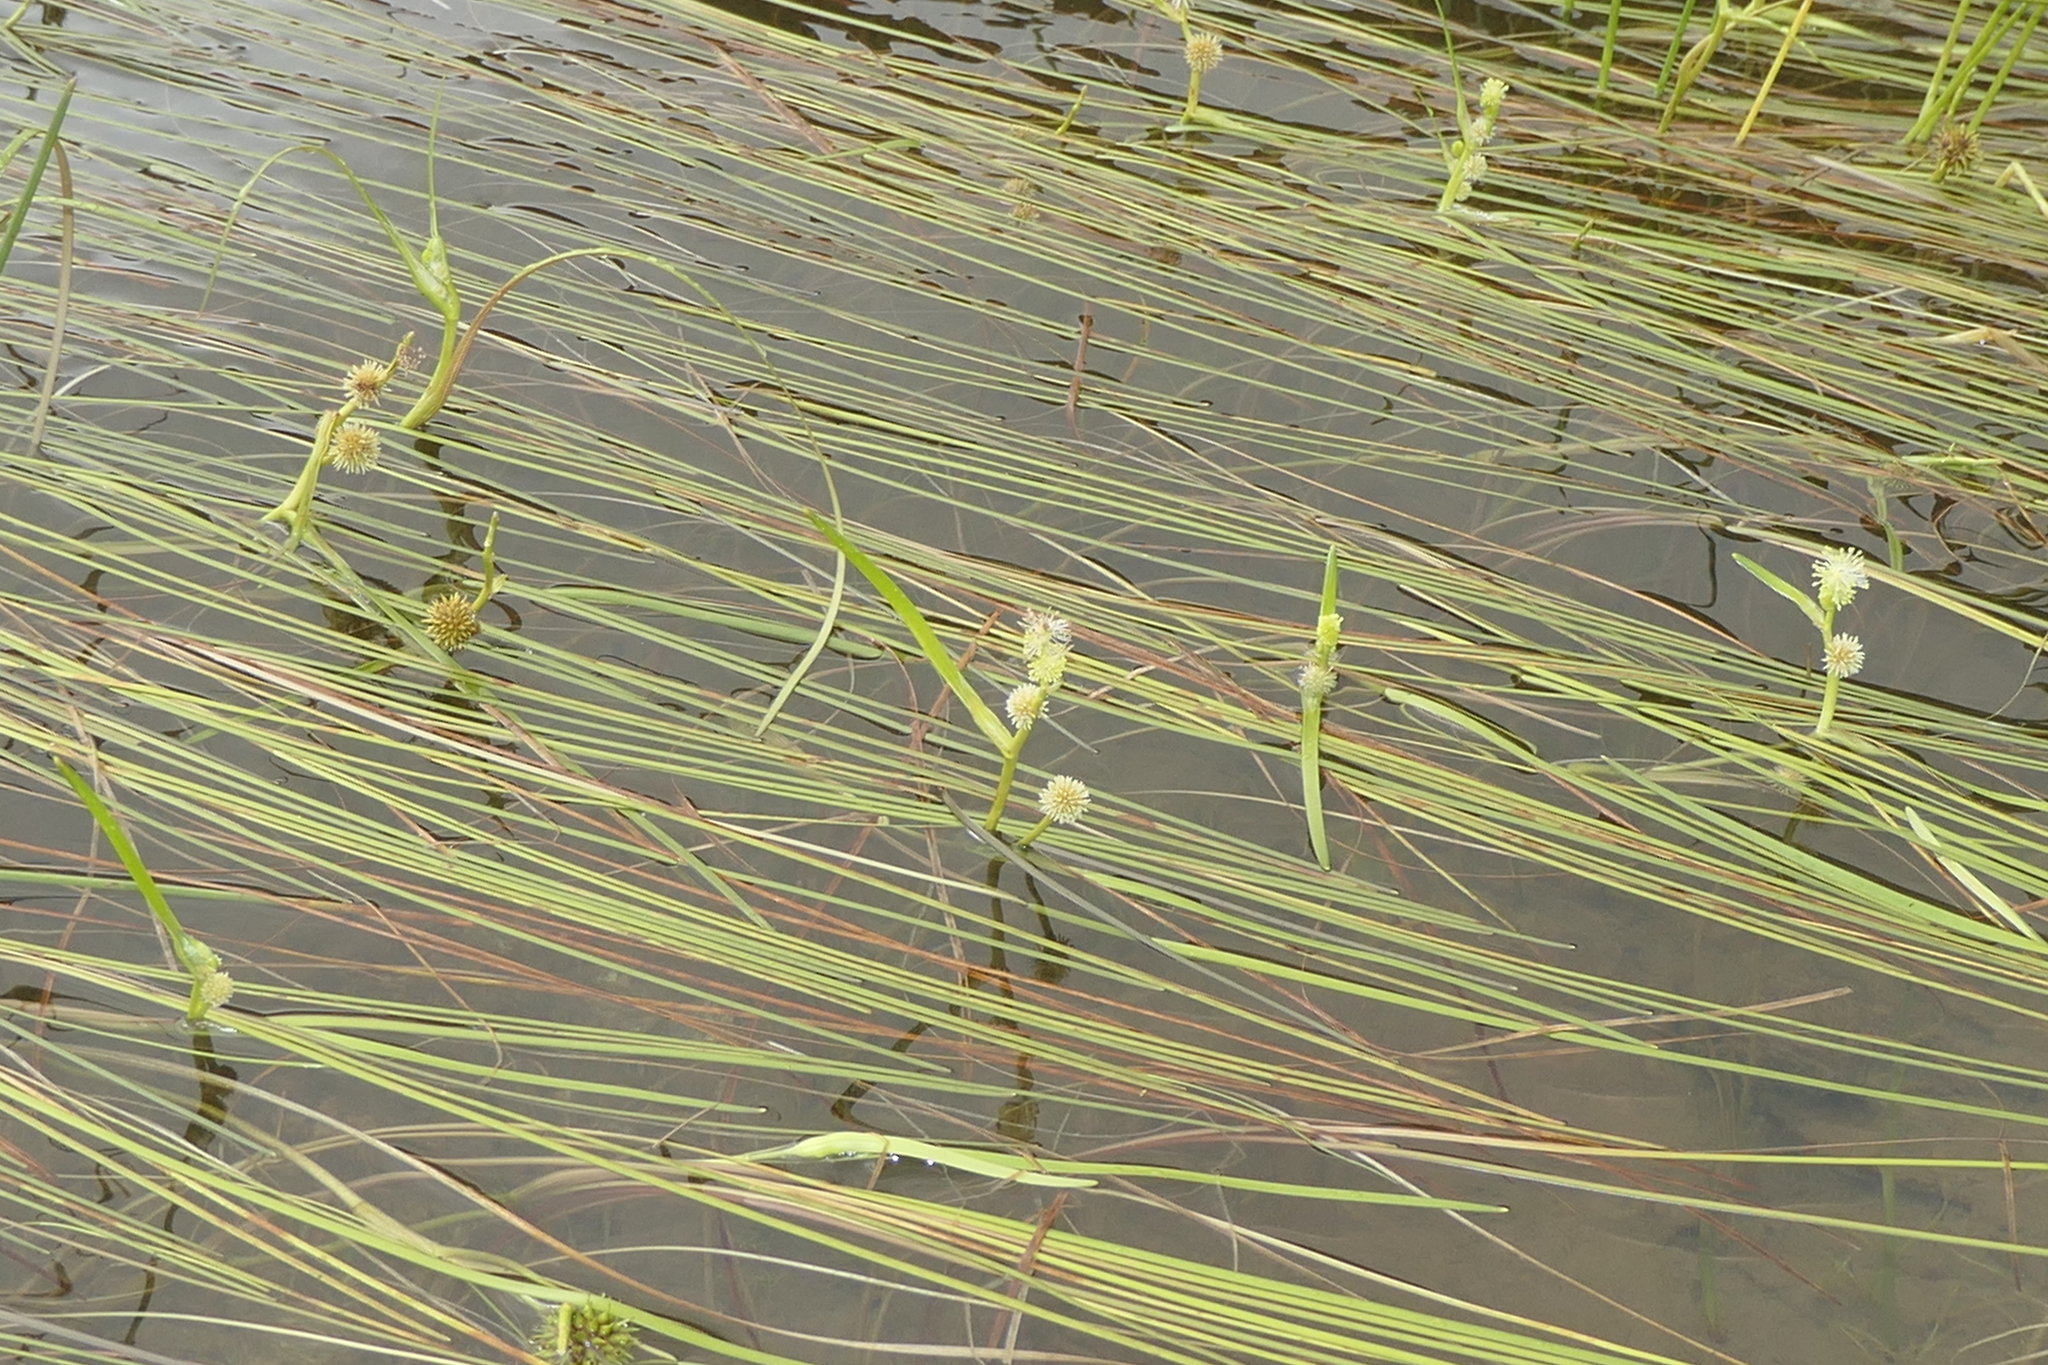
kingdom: Plantae
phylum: Tracheophyta
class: Liliopsida
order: Poales
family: Typhaceae
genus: Sparganium
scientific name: Sparganium angustifolium
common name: Floating bur-reed
